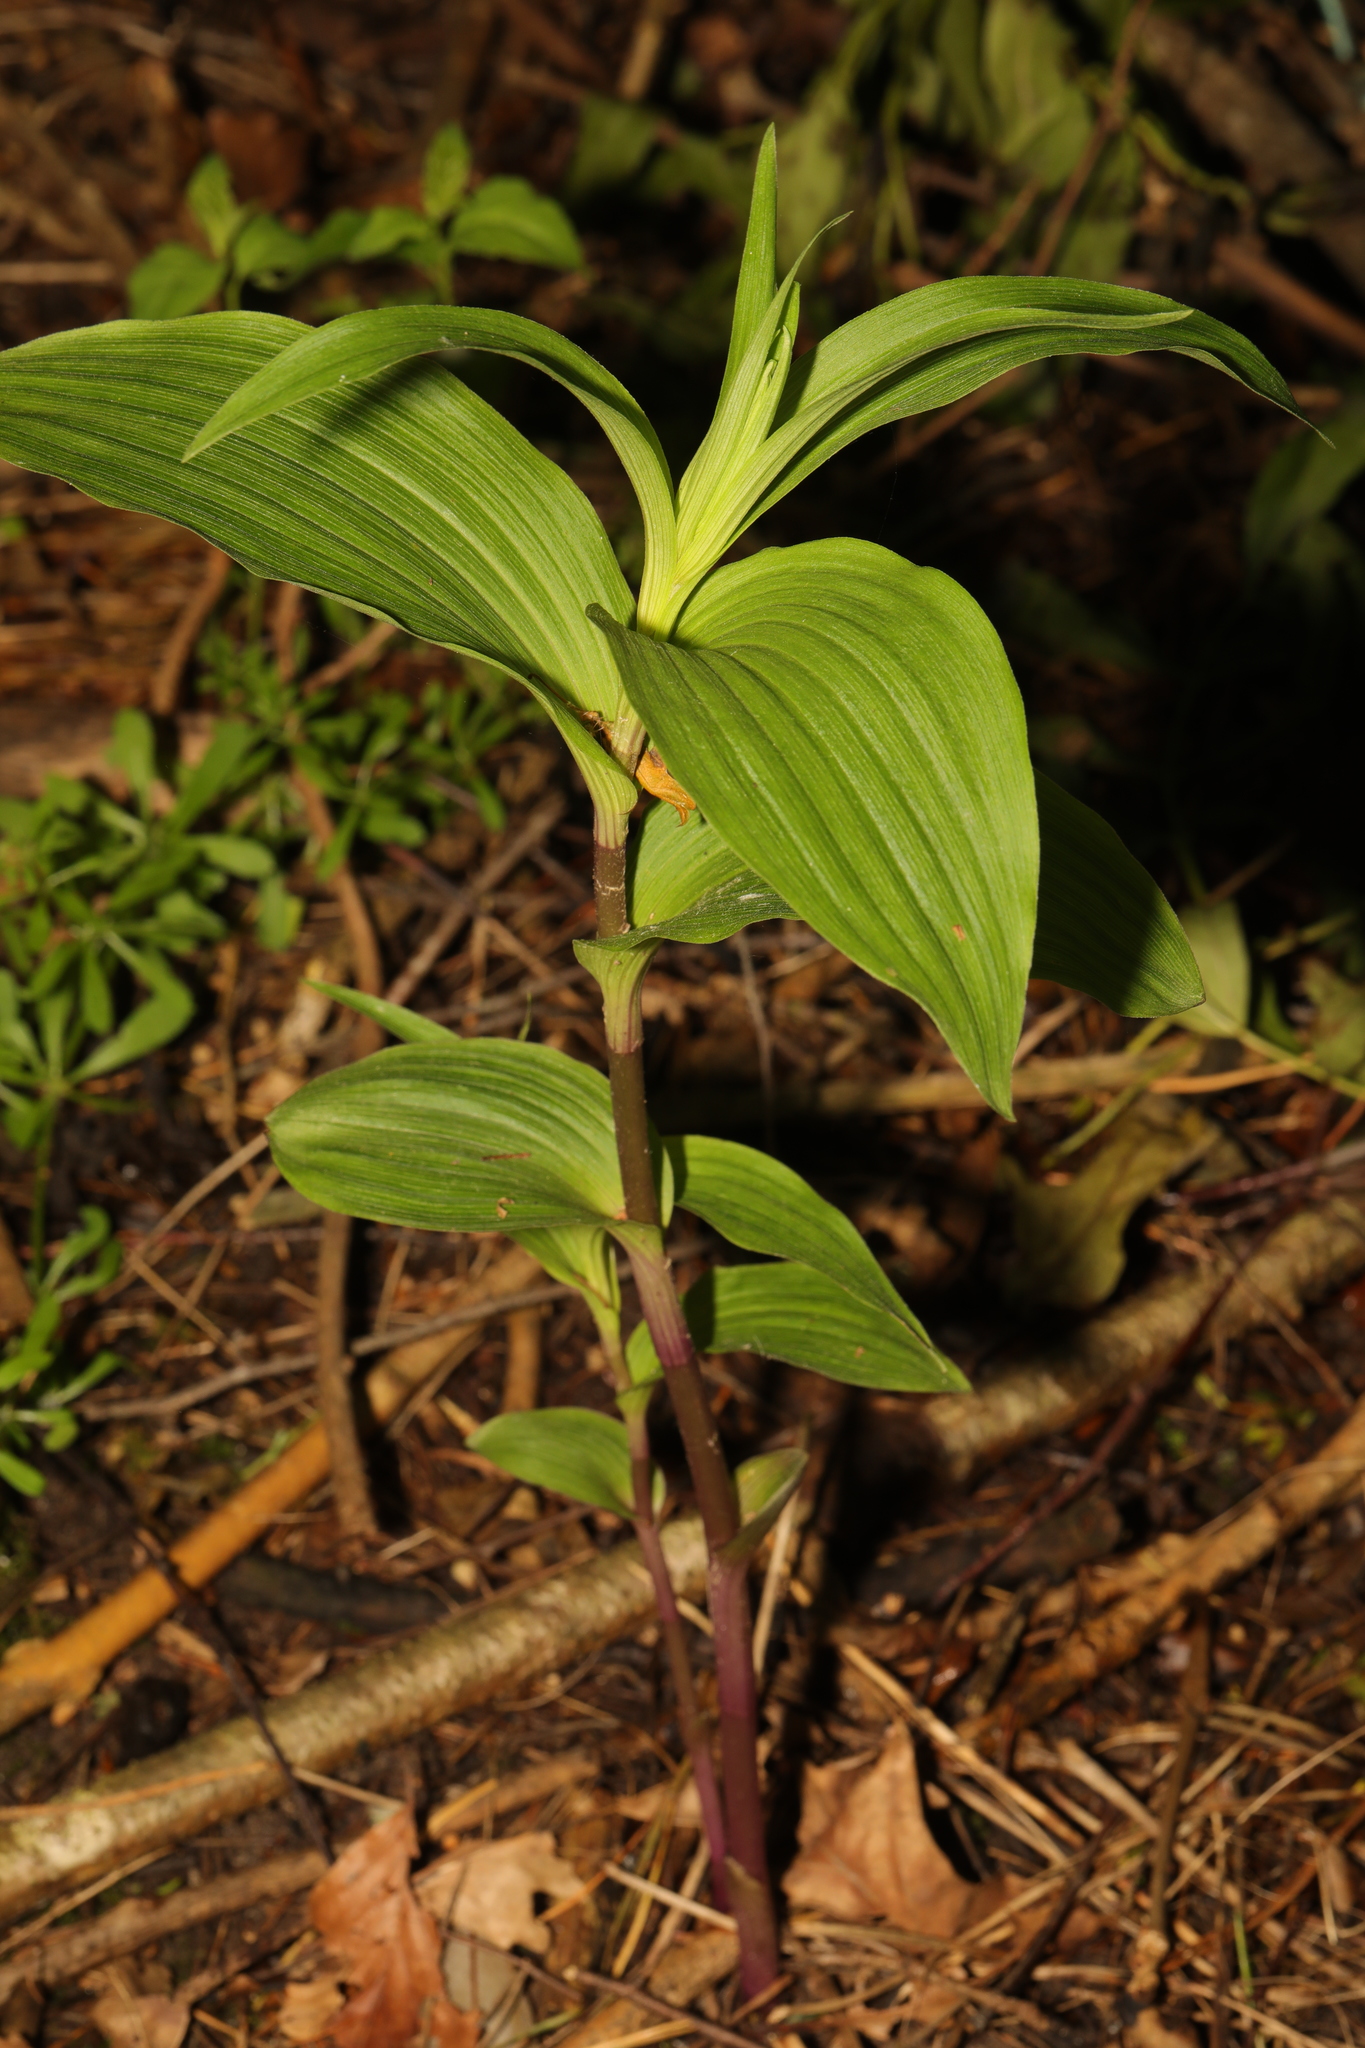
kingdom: Plantae
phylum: Tracheophyta
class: Liliopsida
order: Asparagales
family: Orchidaceae
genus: Epipactis
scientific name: Epipactis helleborine
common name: Broad-leaved helleborine
